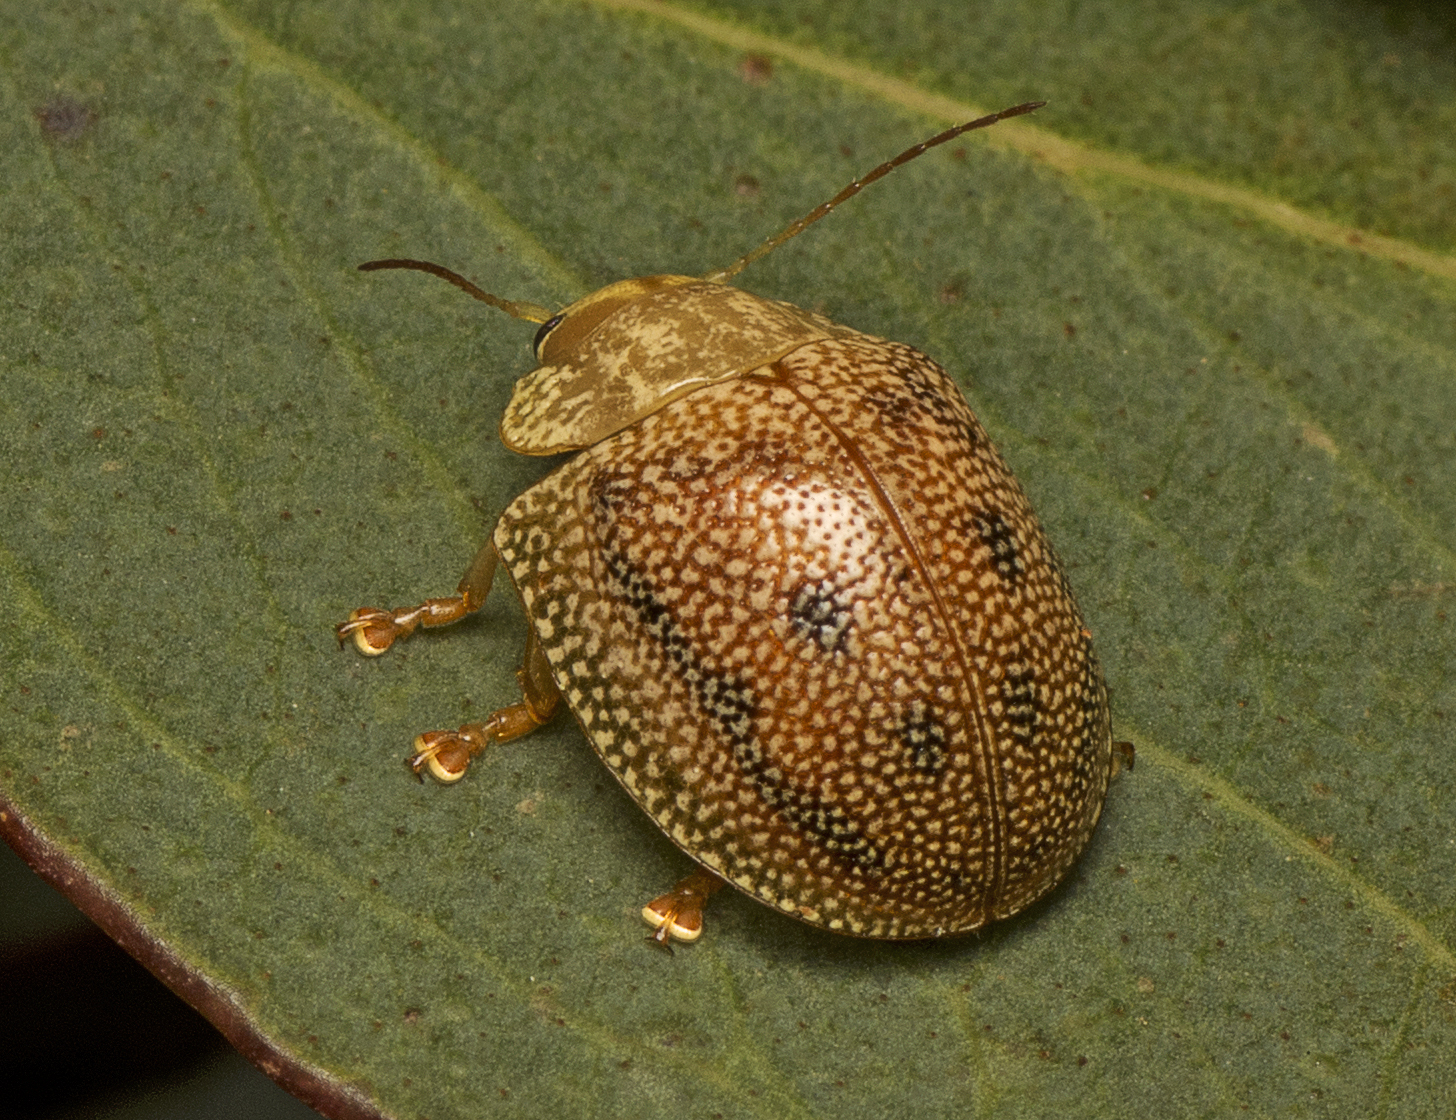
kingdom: Animalia
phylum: Arthropoda
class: Insecta
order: Coleoptera
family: Chrysomelidae
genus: Paropsis
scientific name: Paropsis
